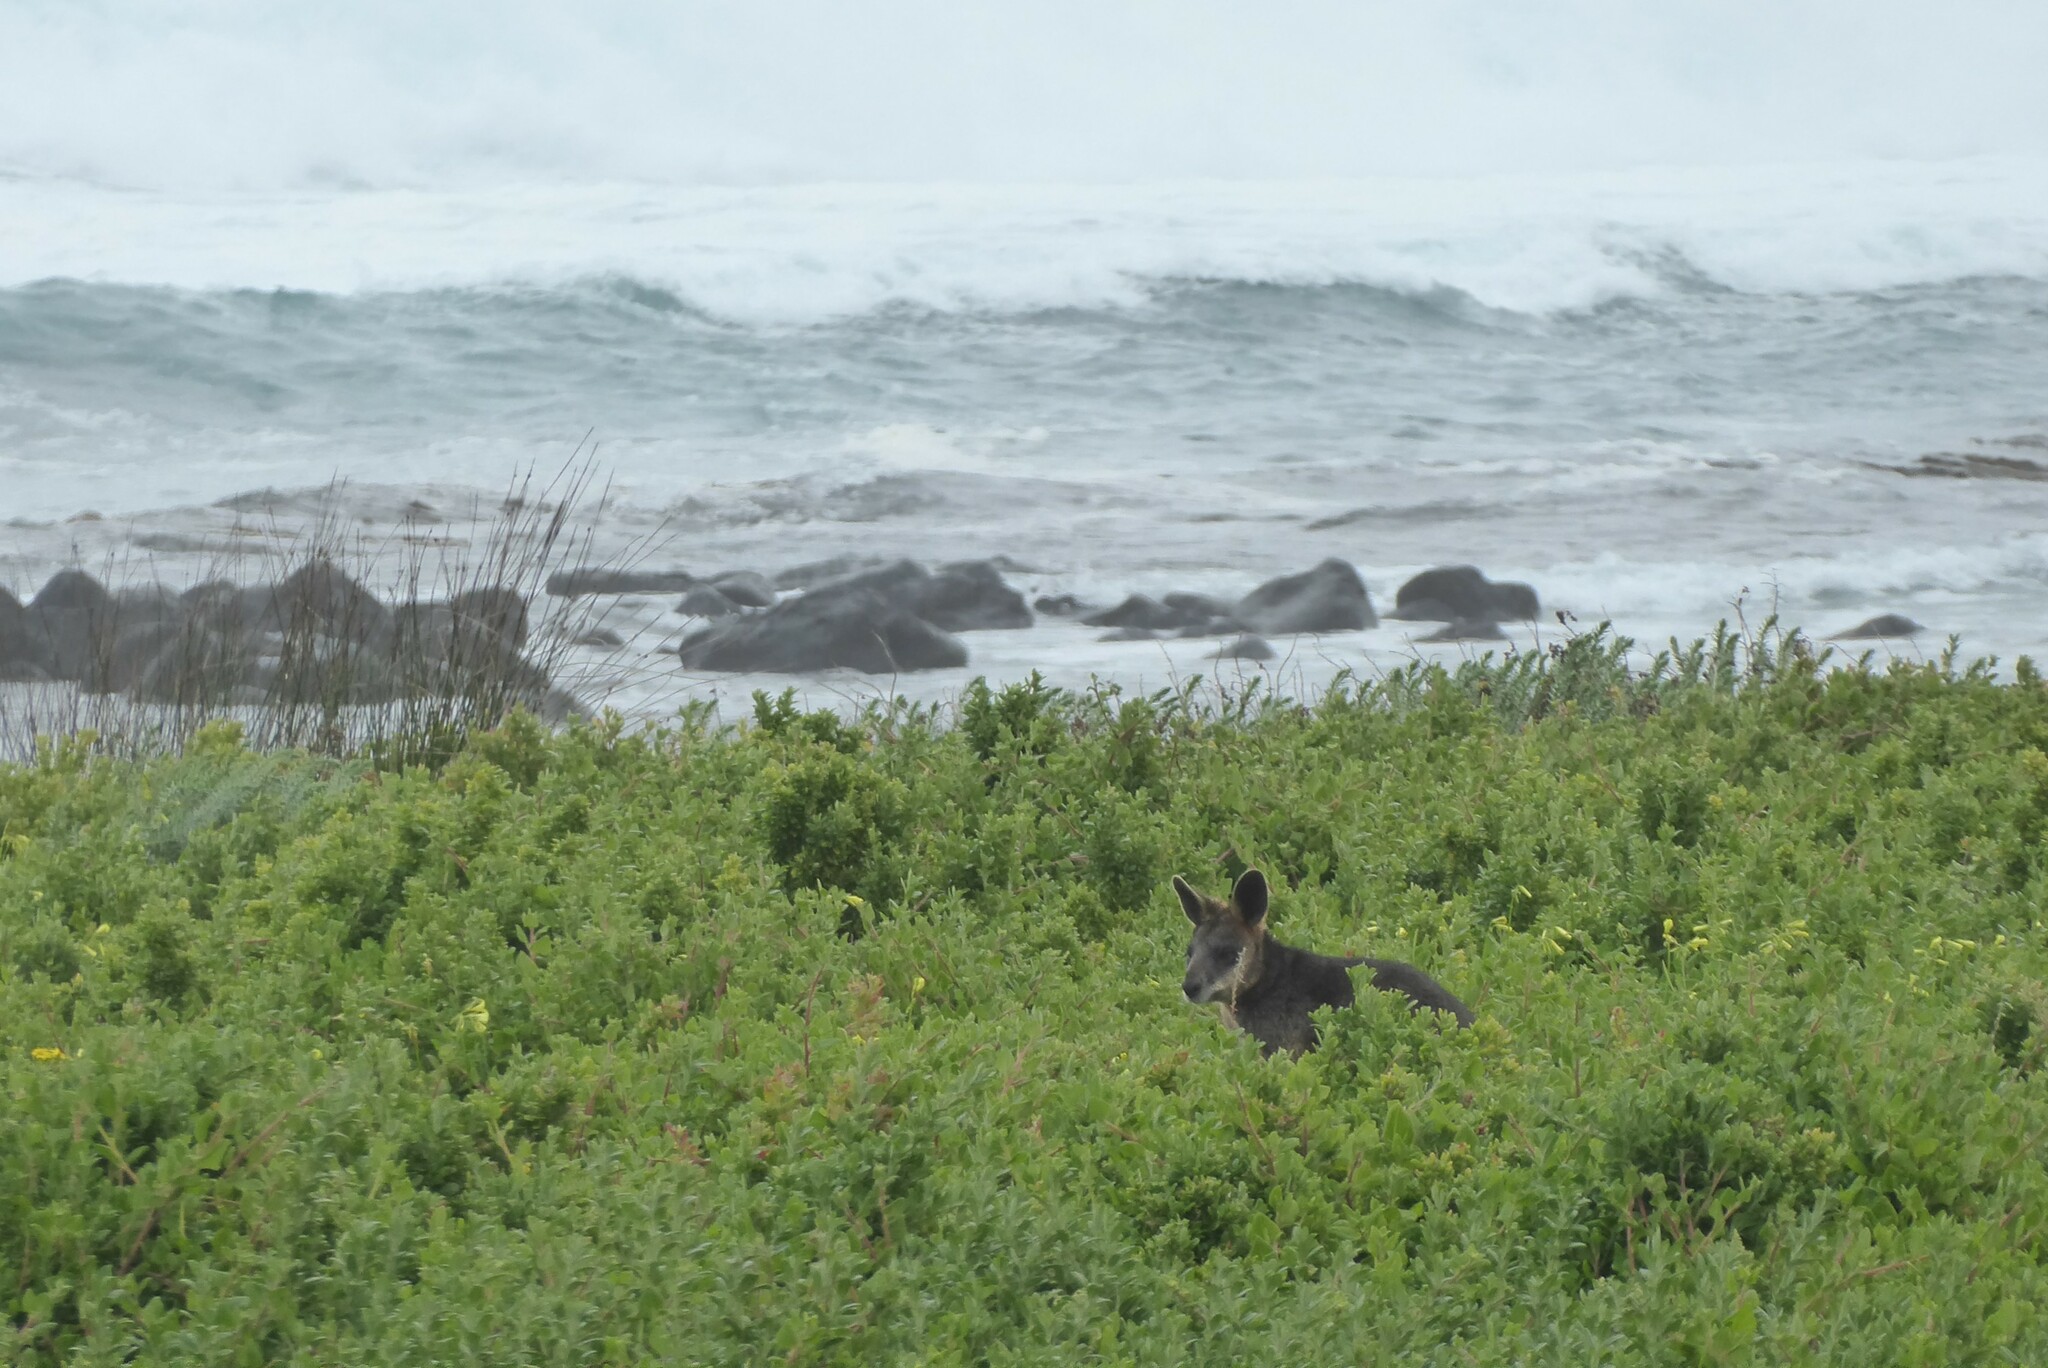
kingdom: Animalia
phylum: Chordata
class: Mammalia
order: Diprotodontia
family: Macropodidae
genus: Wallabia
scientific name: Wallabia bicolor
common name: Swamp wallaby
